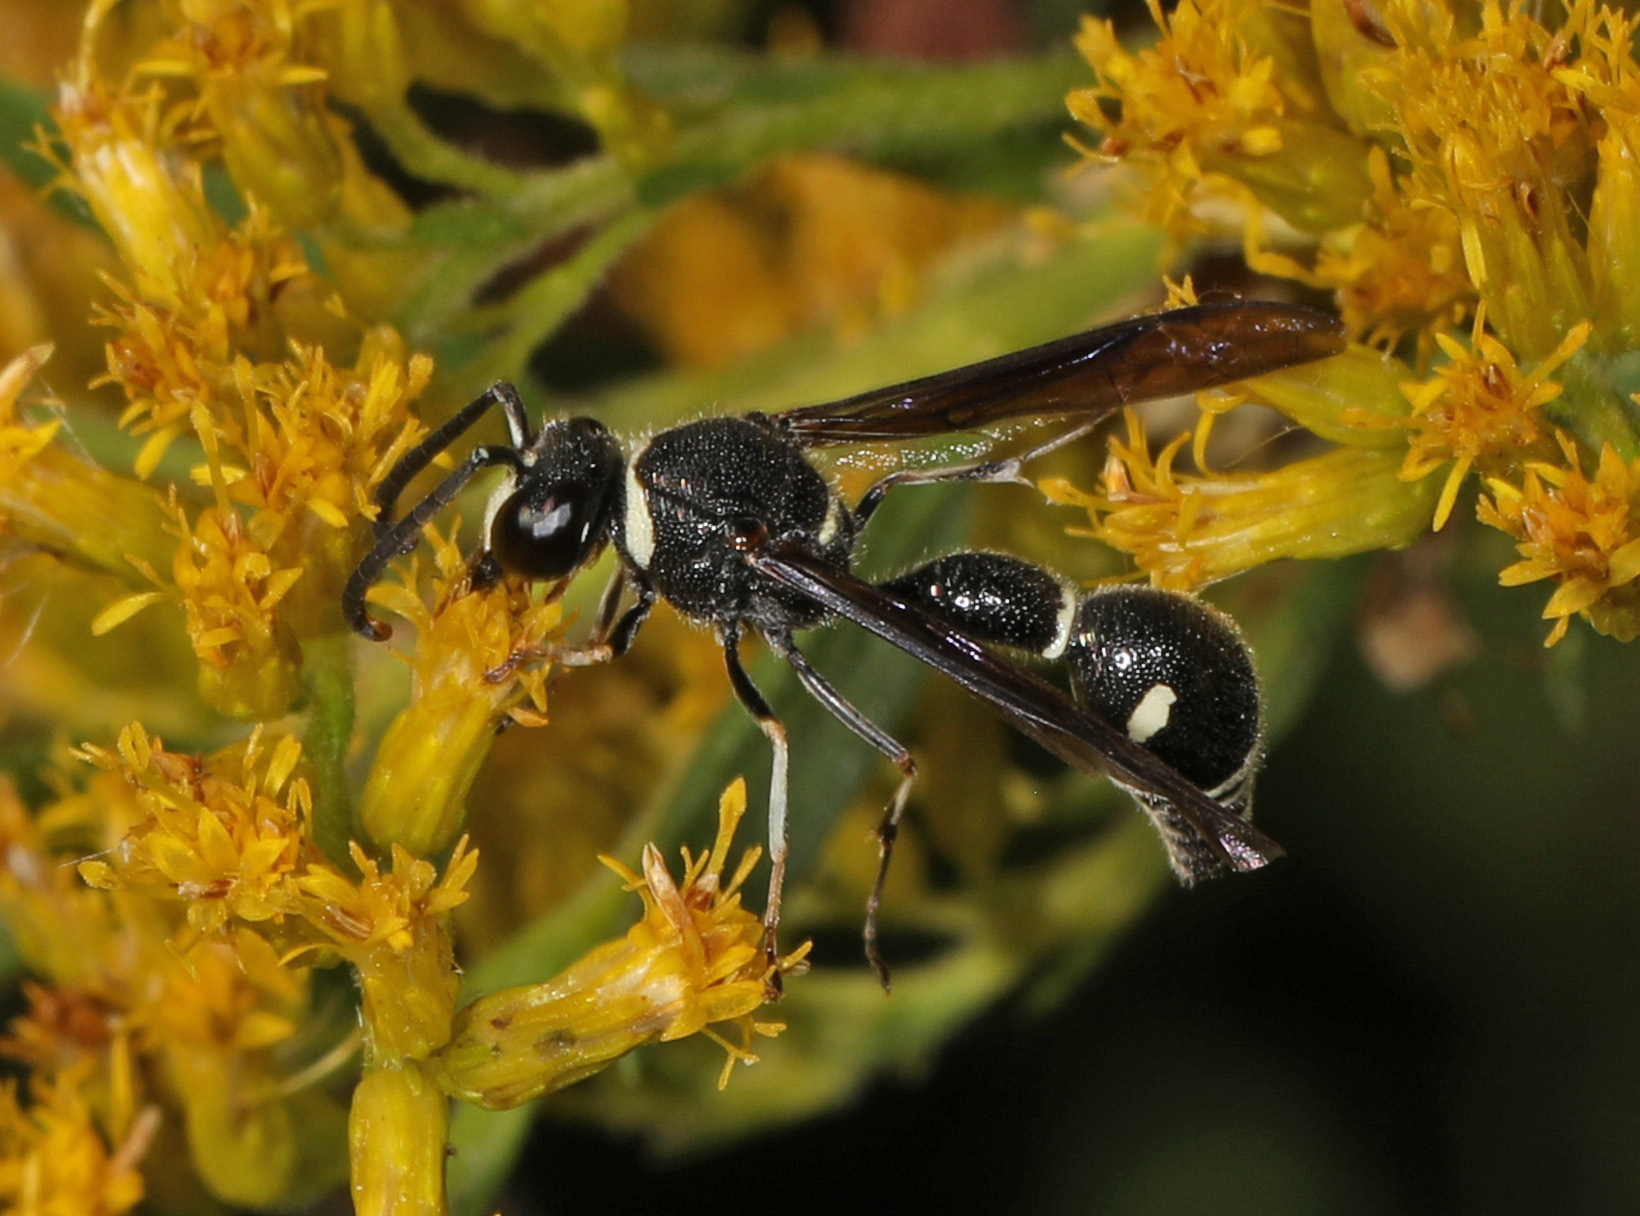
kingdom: Animalia
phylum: Arthropoda
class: Insecta
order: Hymenoptera
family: Vespidae
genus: Eumenes
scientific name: Eumenes fraternus
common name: Fraternal potter wasp
